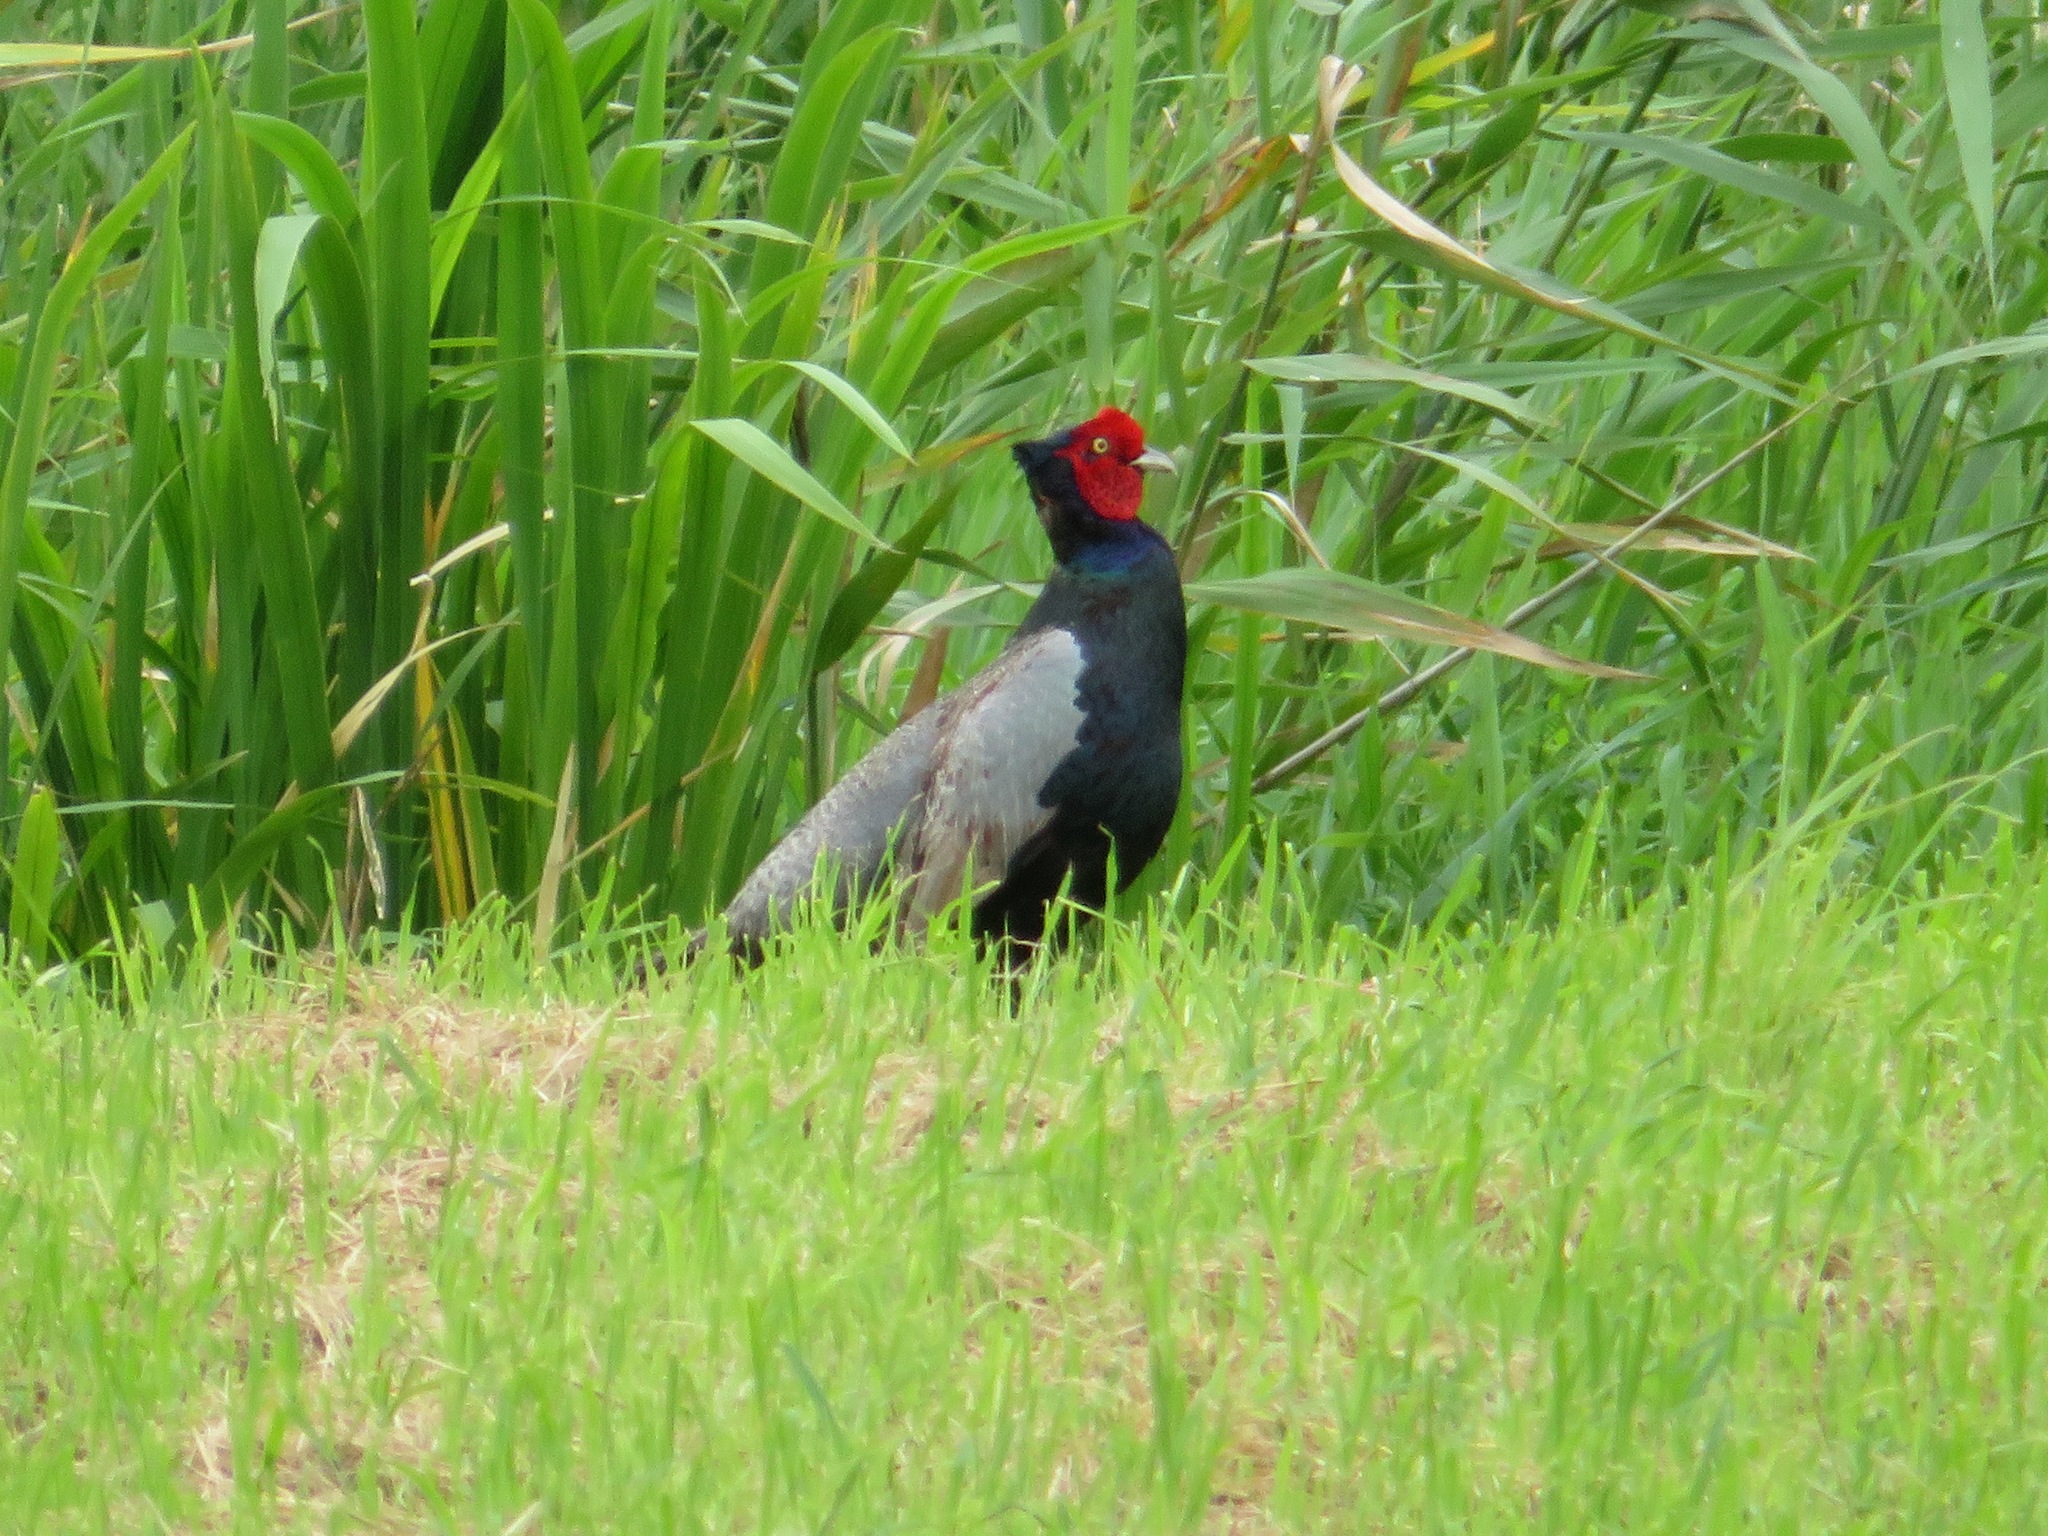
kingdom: Animalia
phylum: Chordata
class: Aves
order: Galliformes
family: Phasianidae
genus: Phasianus
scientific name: Phasianus versicolor
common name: Green pheasant
